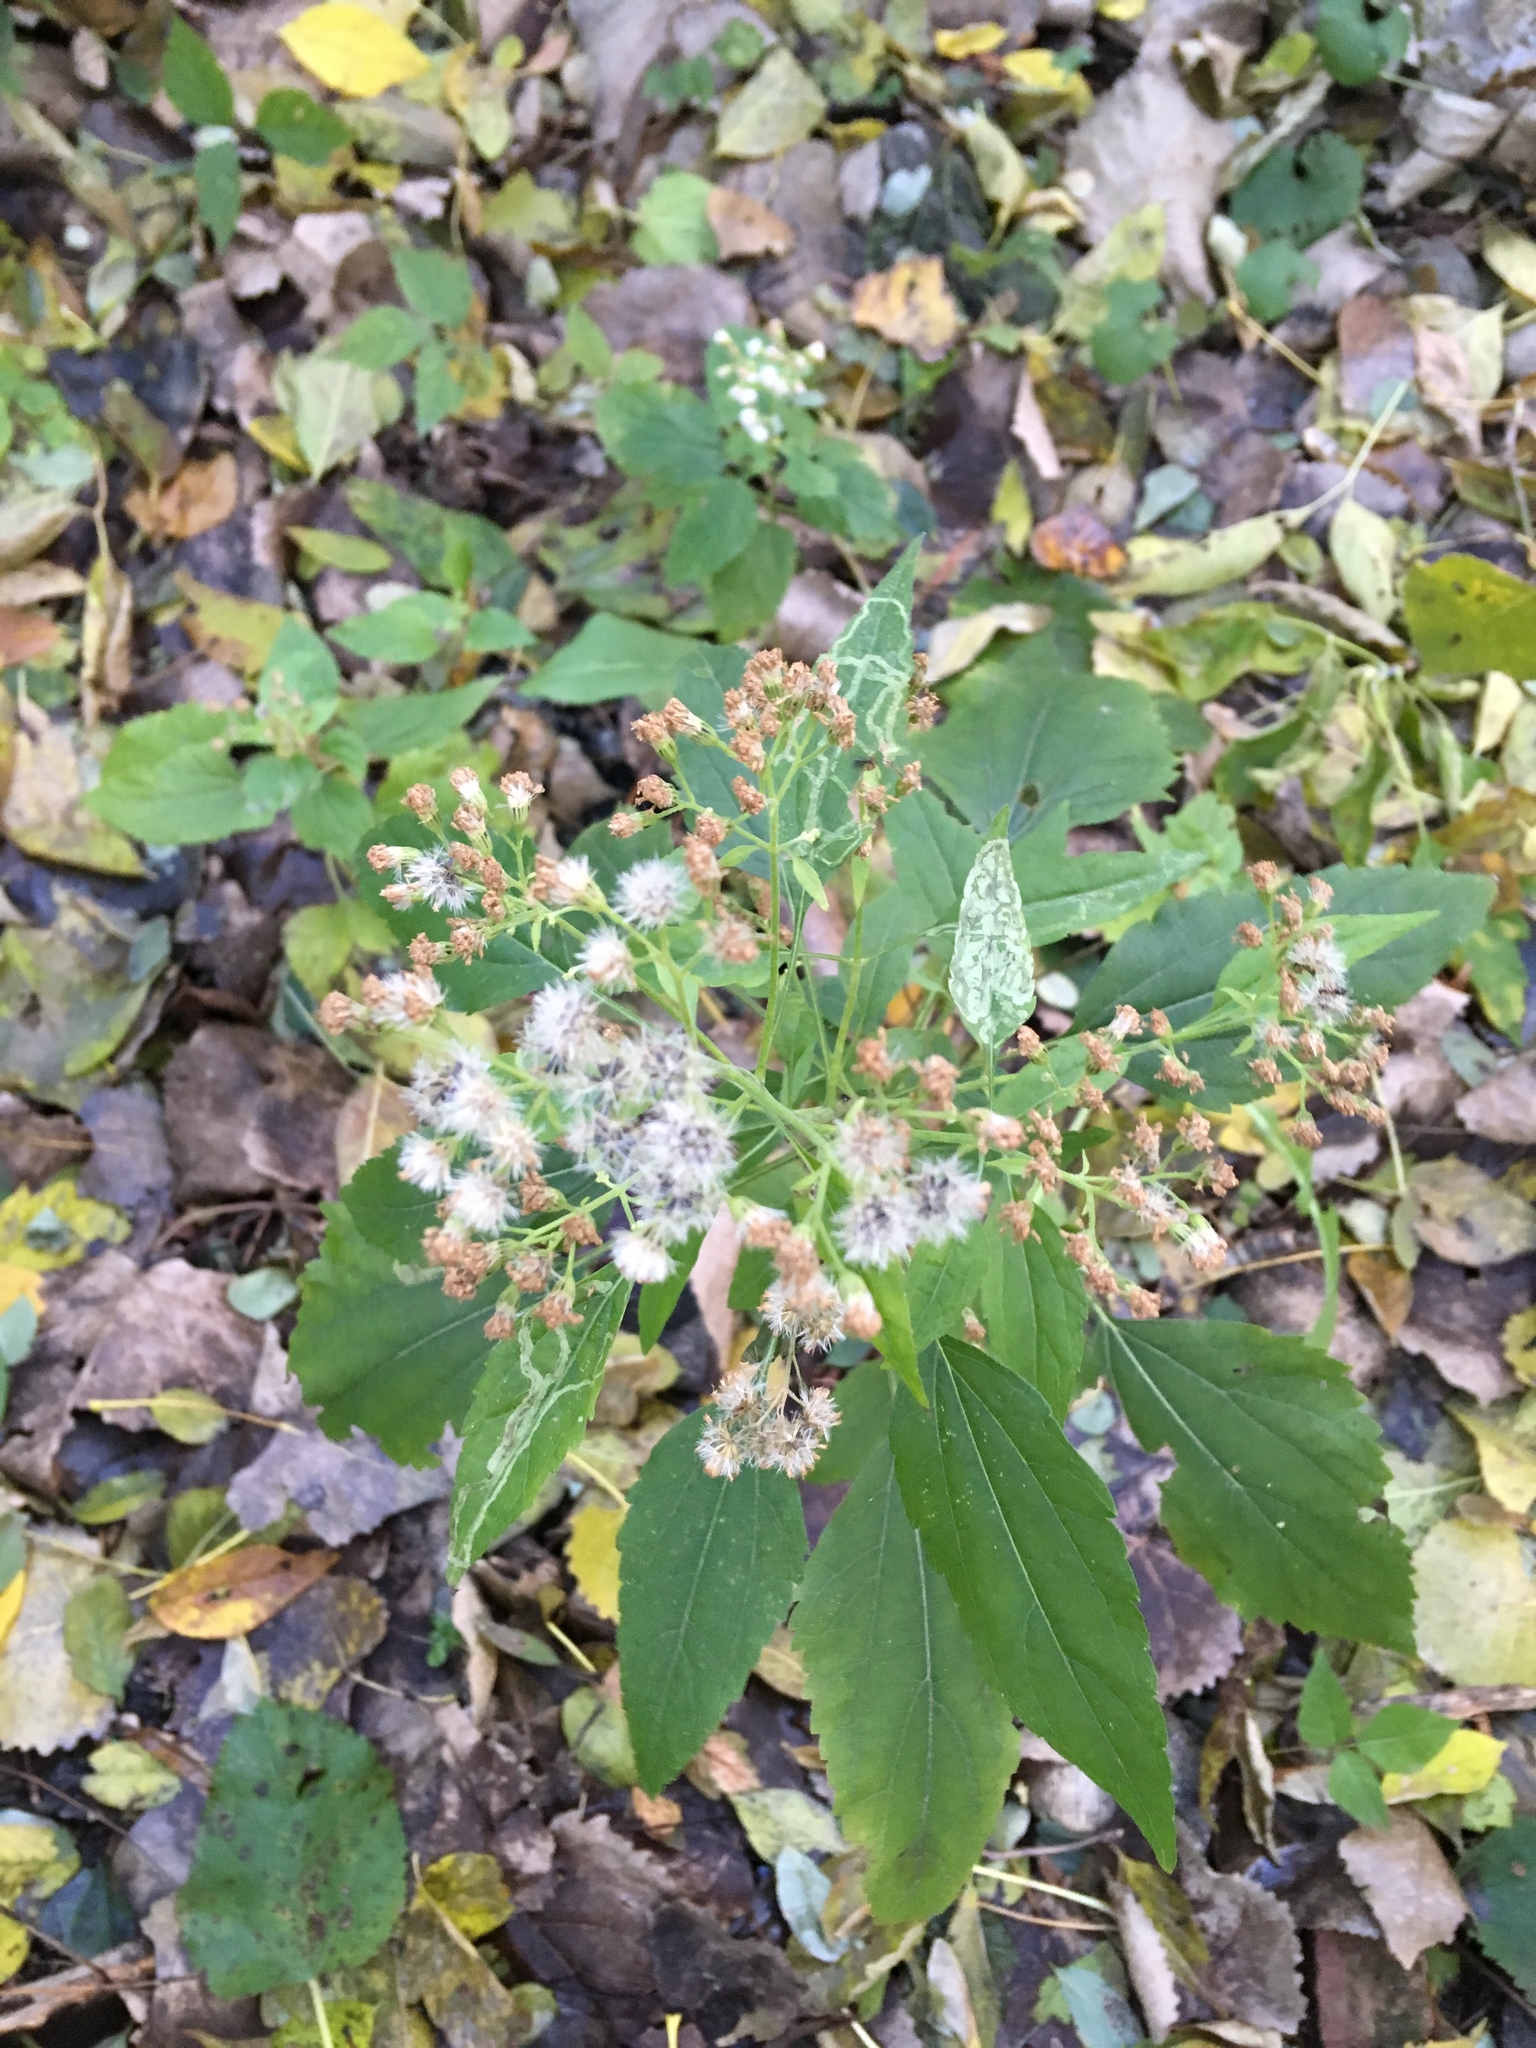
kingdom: Plantae
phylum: Tracheophyta
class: Magnoliopsida
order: Asterales
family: Asteraceae
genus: Ageratina
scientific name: Ageratina altissima
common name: White snakeroot
